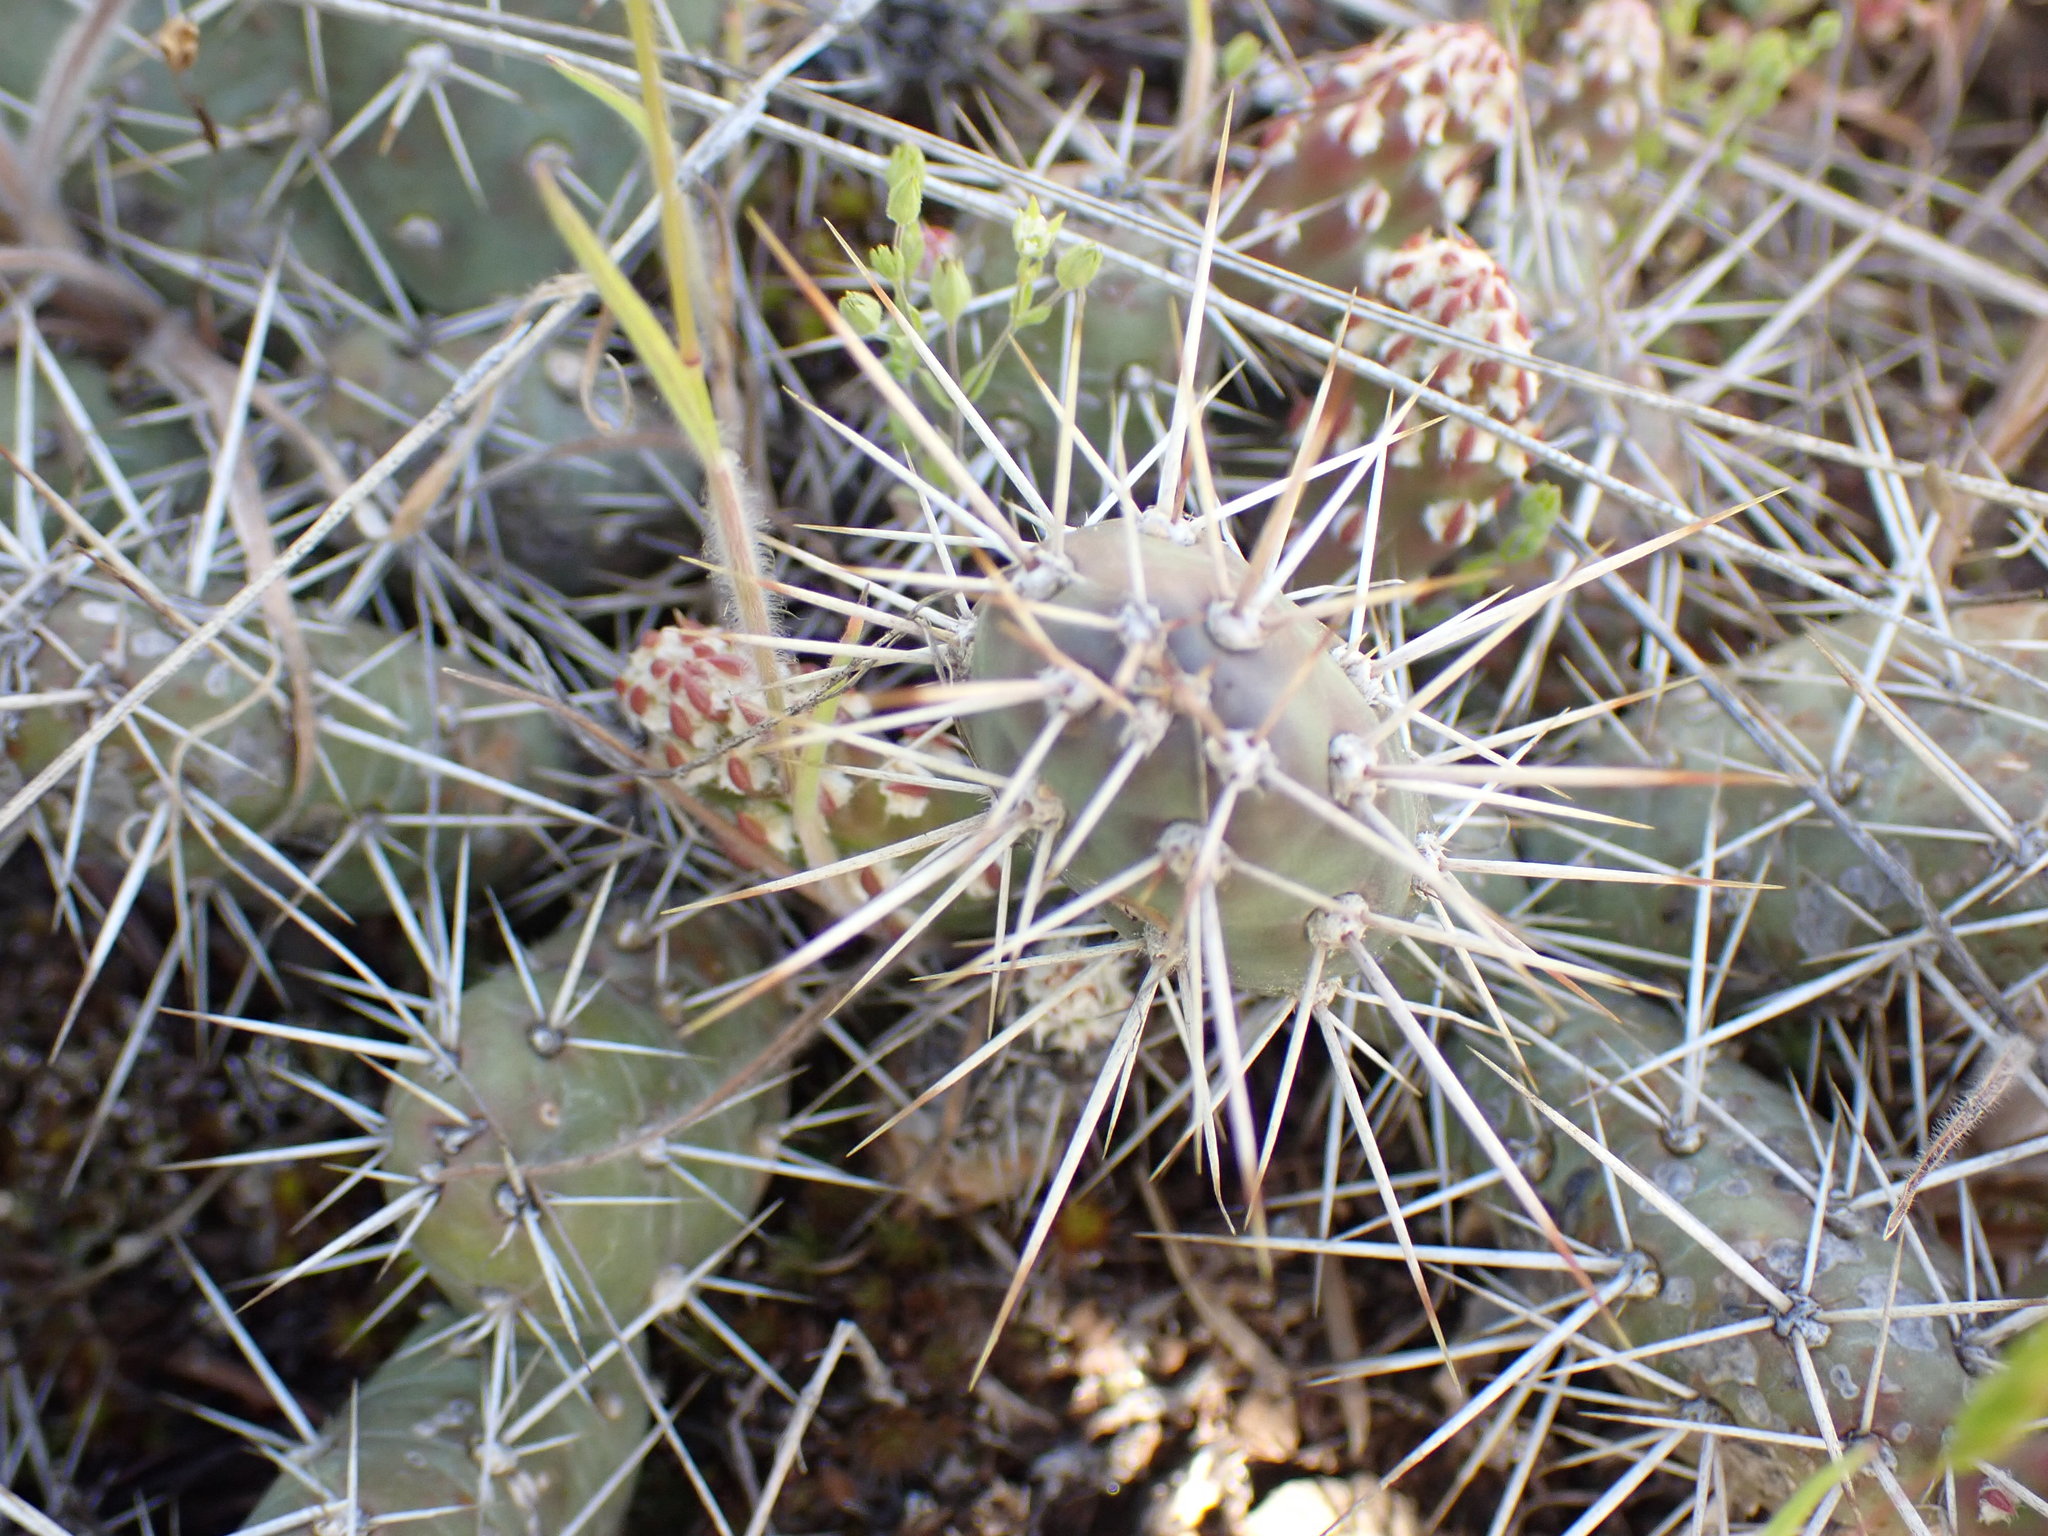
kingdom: Plantae
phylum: Tracheophyta
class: Magnoliopsida
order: Caryophyllales
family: Cactaceae
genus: Opuntia
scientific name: Opuntia fragilis
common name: Brittle cactus
